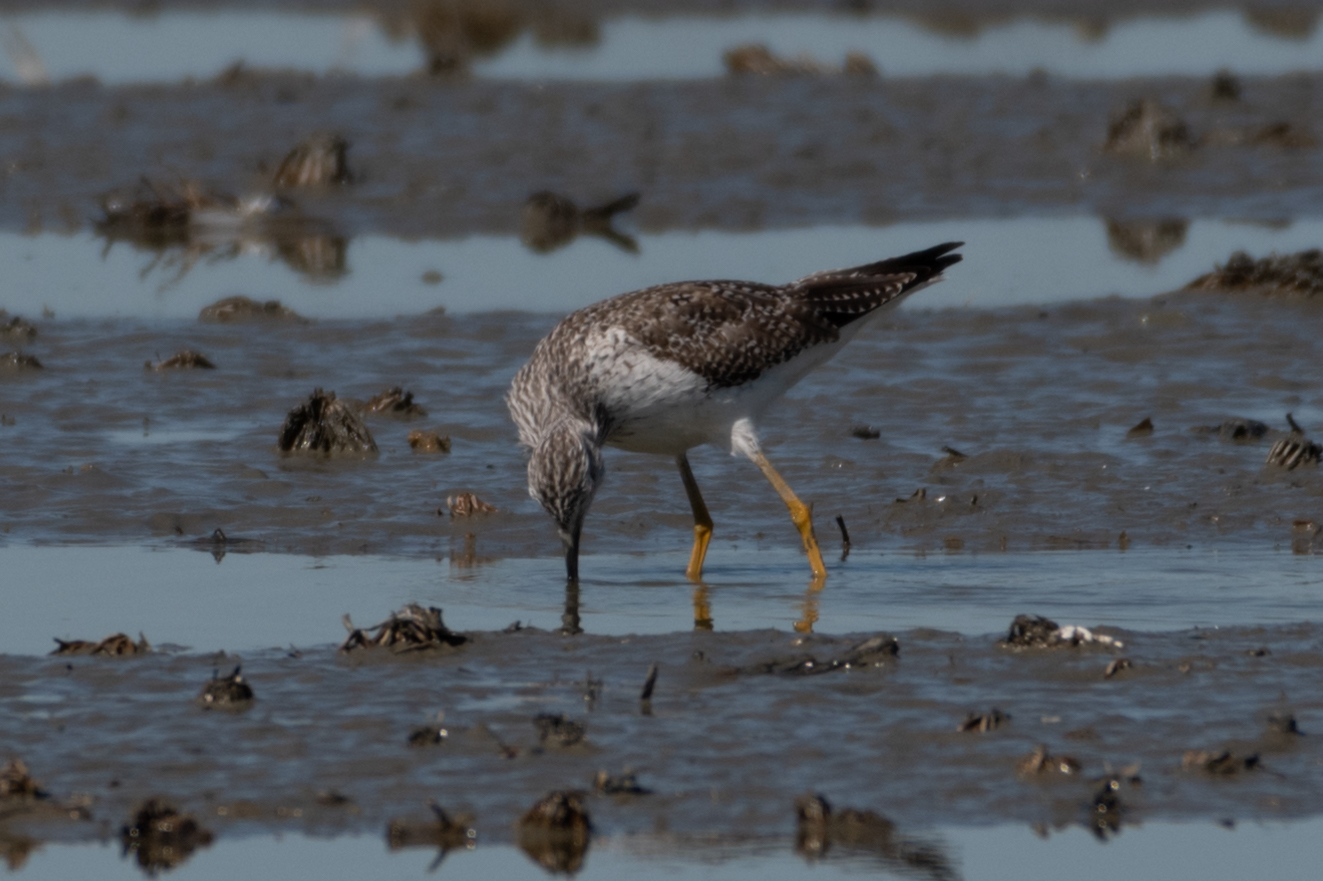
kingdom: Animalia
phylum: Chordata
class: Aves
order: Charadriiformes
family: Scolopacidae
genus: Tringa
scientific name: Tringa melanoleuca
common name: Greater yellowlegs
